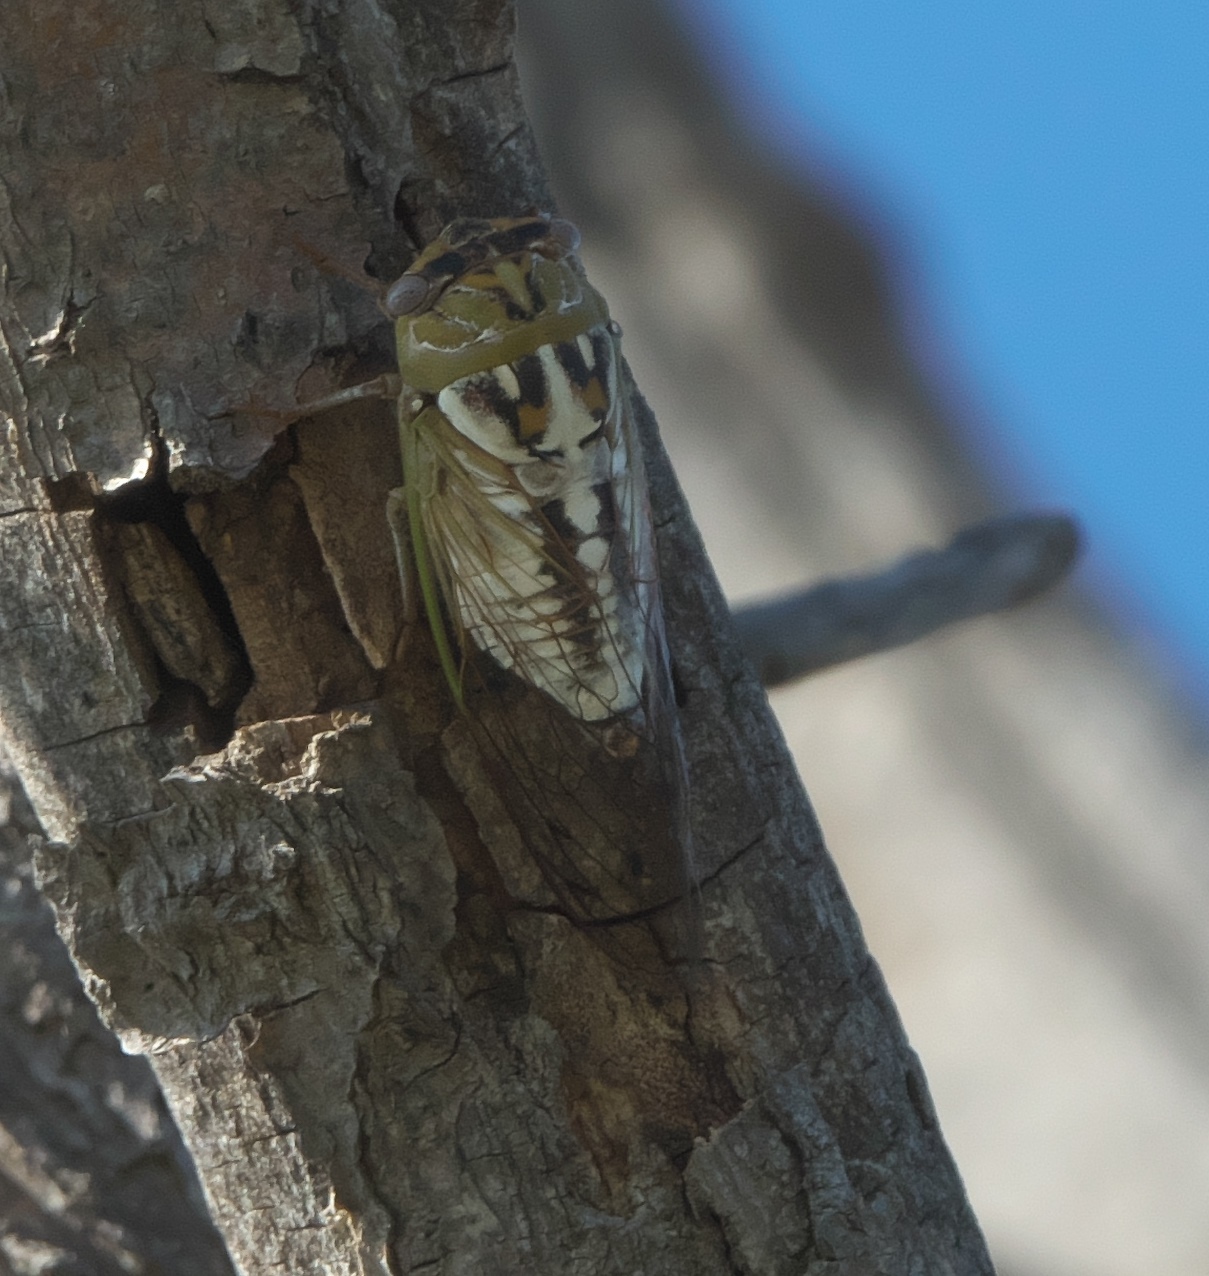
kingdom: Animalia
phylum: Arthropoda
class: Insecta
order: Hemiptera
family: Cicadidae
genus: Megatibicen
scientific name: Megatibicen dealbatus
